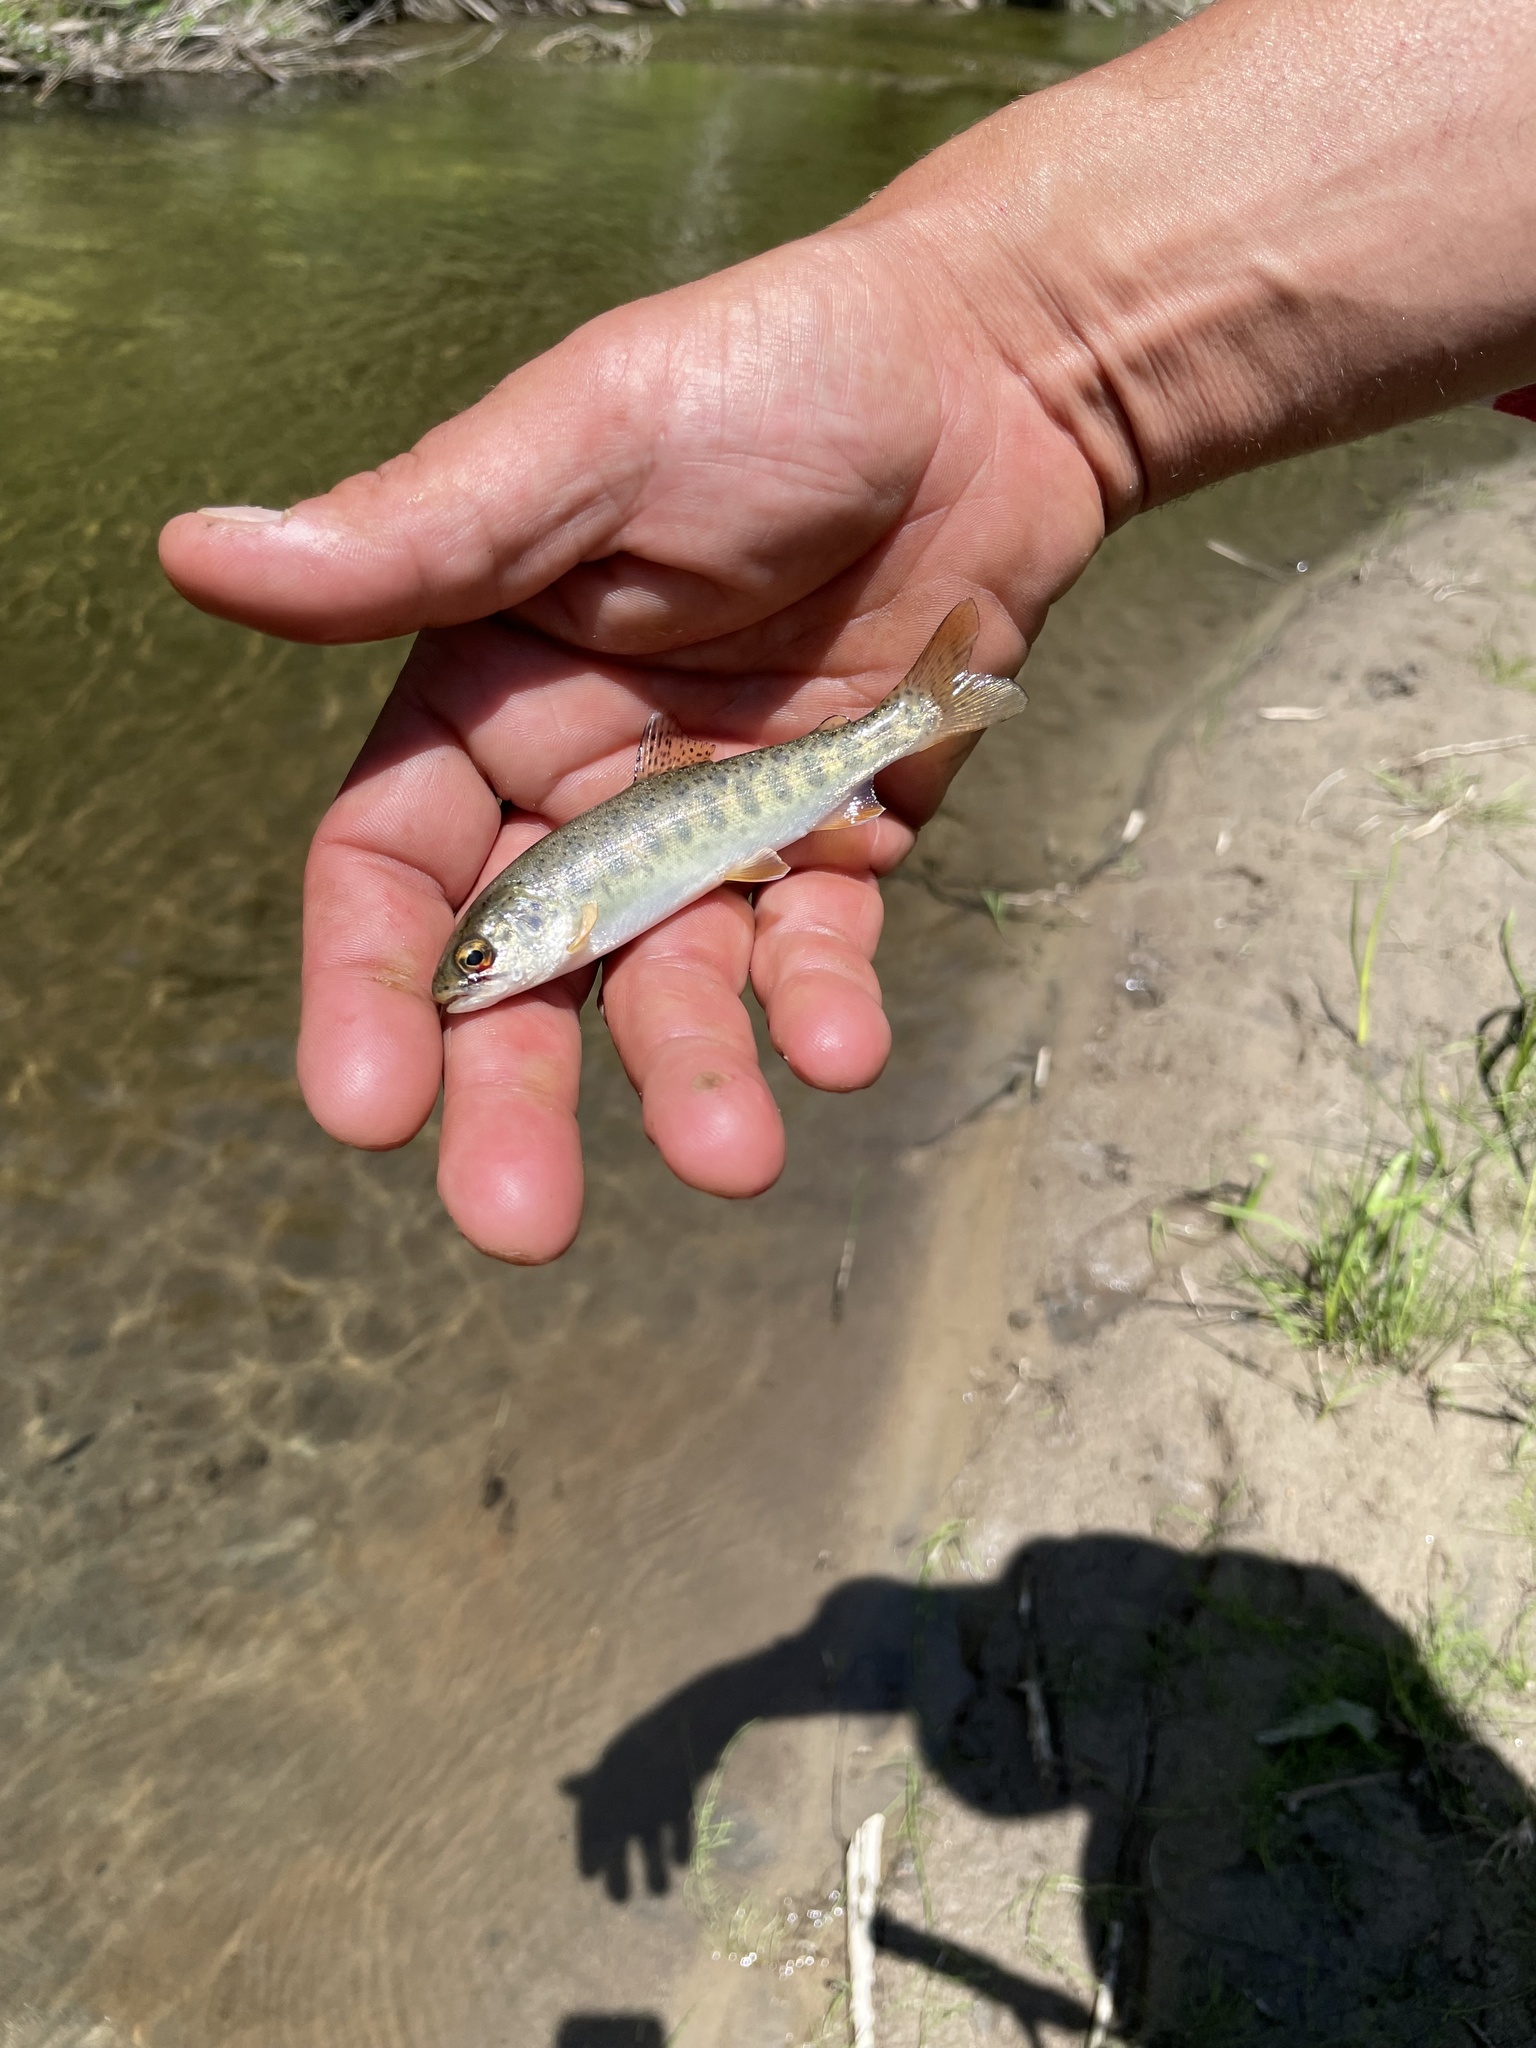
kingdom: Animalia
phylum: Chordata
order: Salmoniformes
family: Salmonidae
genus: Oncorhynchus
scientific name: Oncorhynchus mykiss
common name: Rainbow trout
